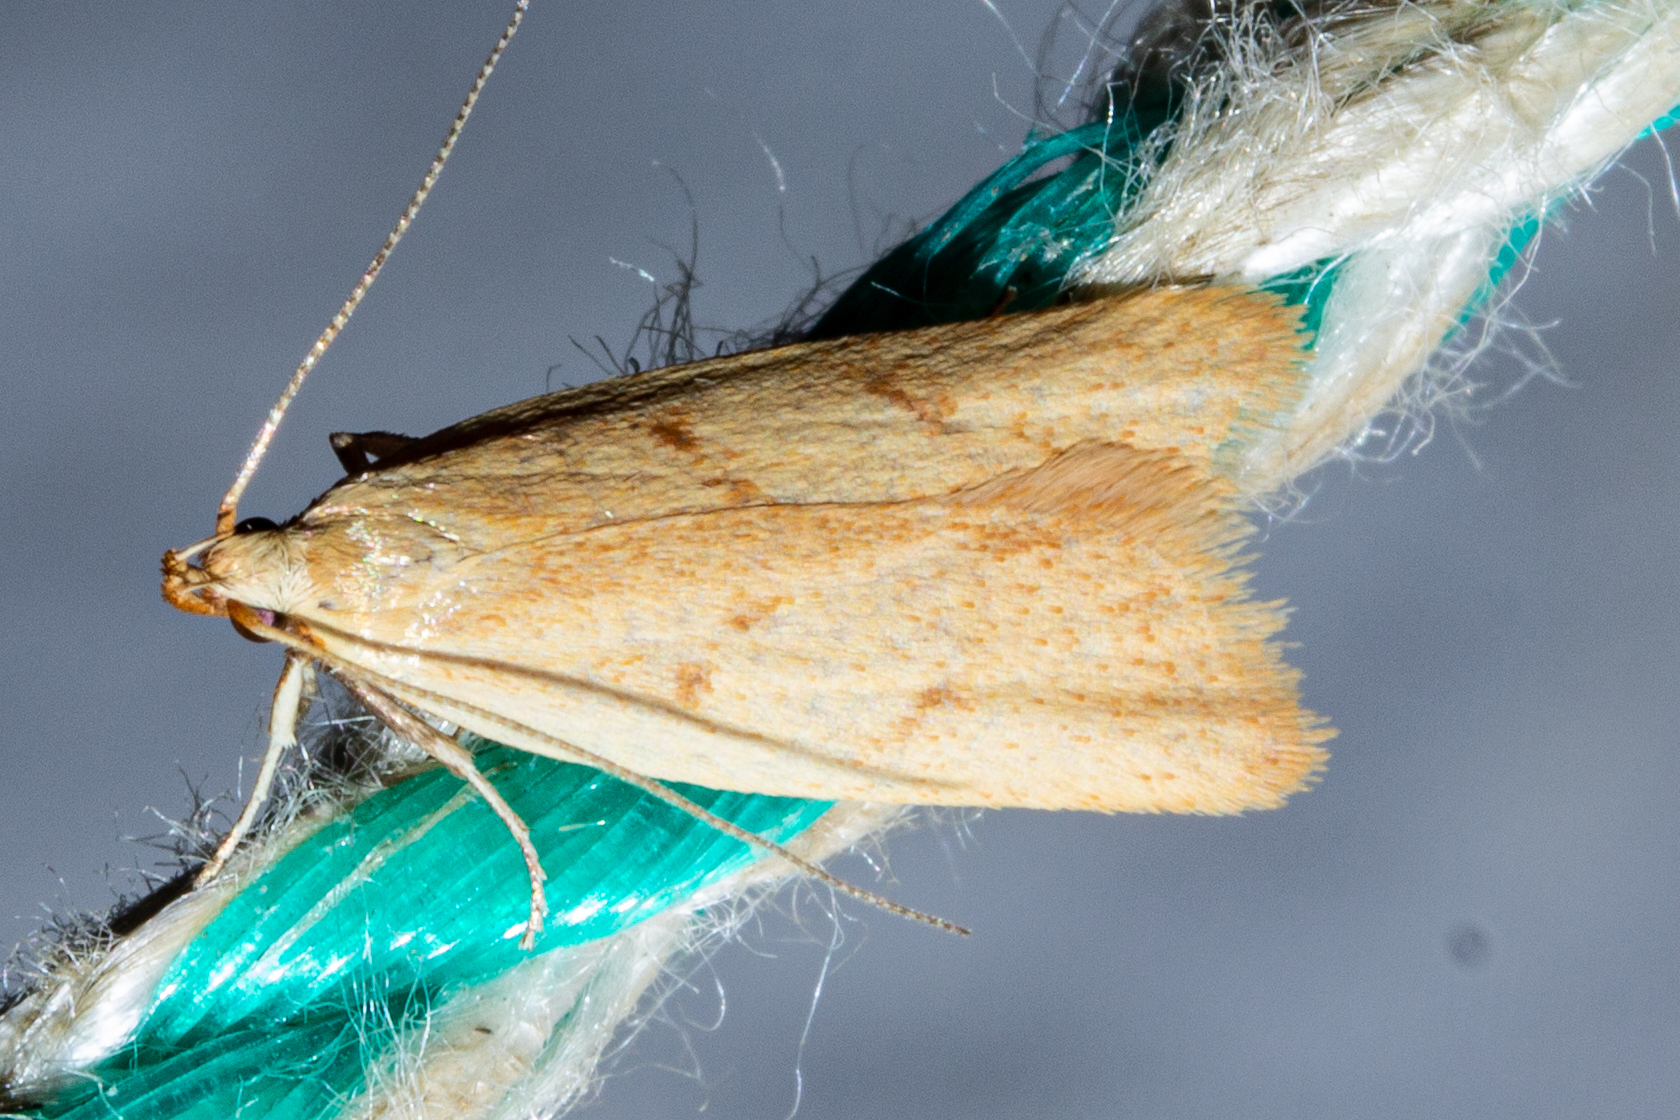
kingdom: Animalia
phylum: Arthropoda
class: Insecta
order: Lepidoptera
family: Oecophoridae
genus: Gymnobathra
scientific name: Gymnobathra sarcoxantha
